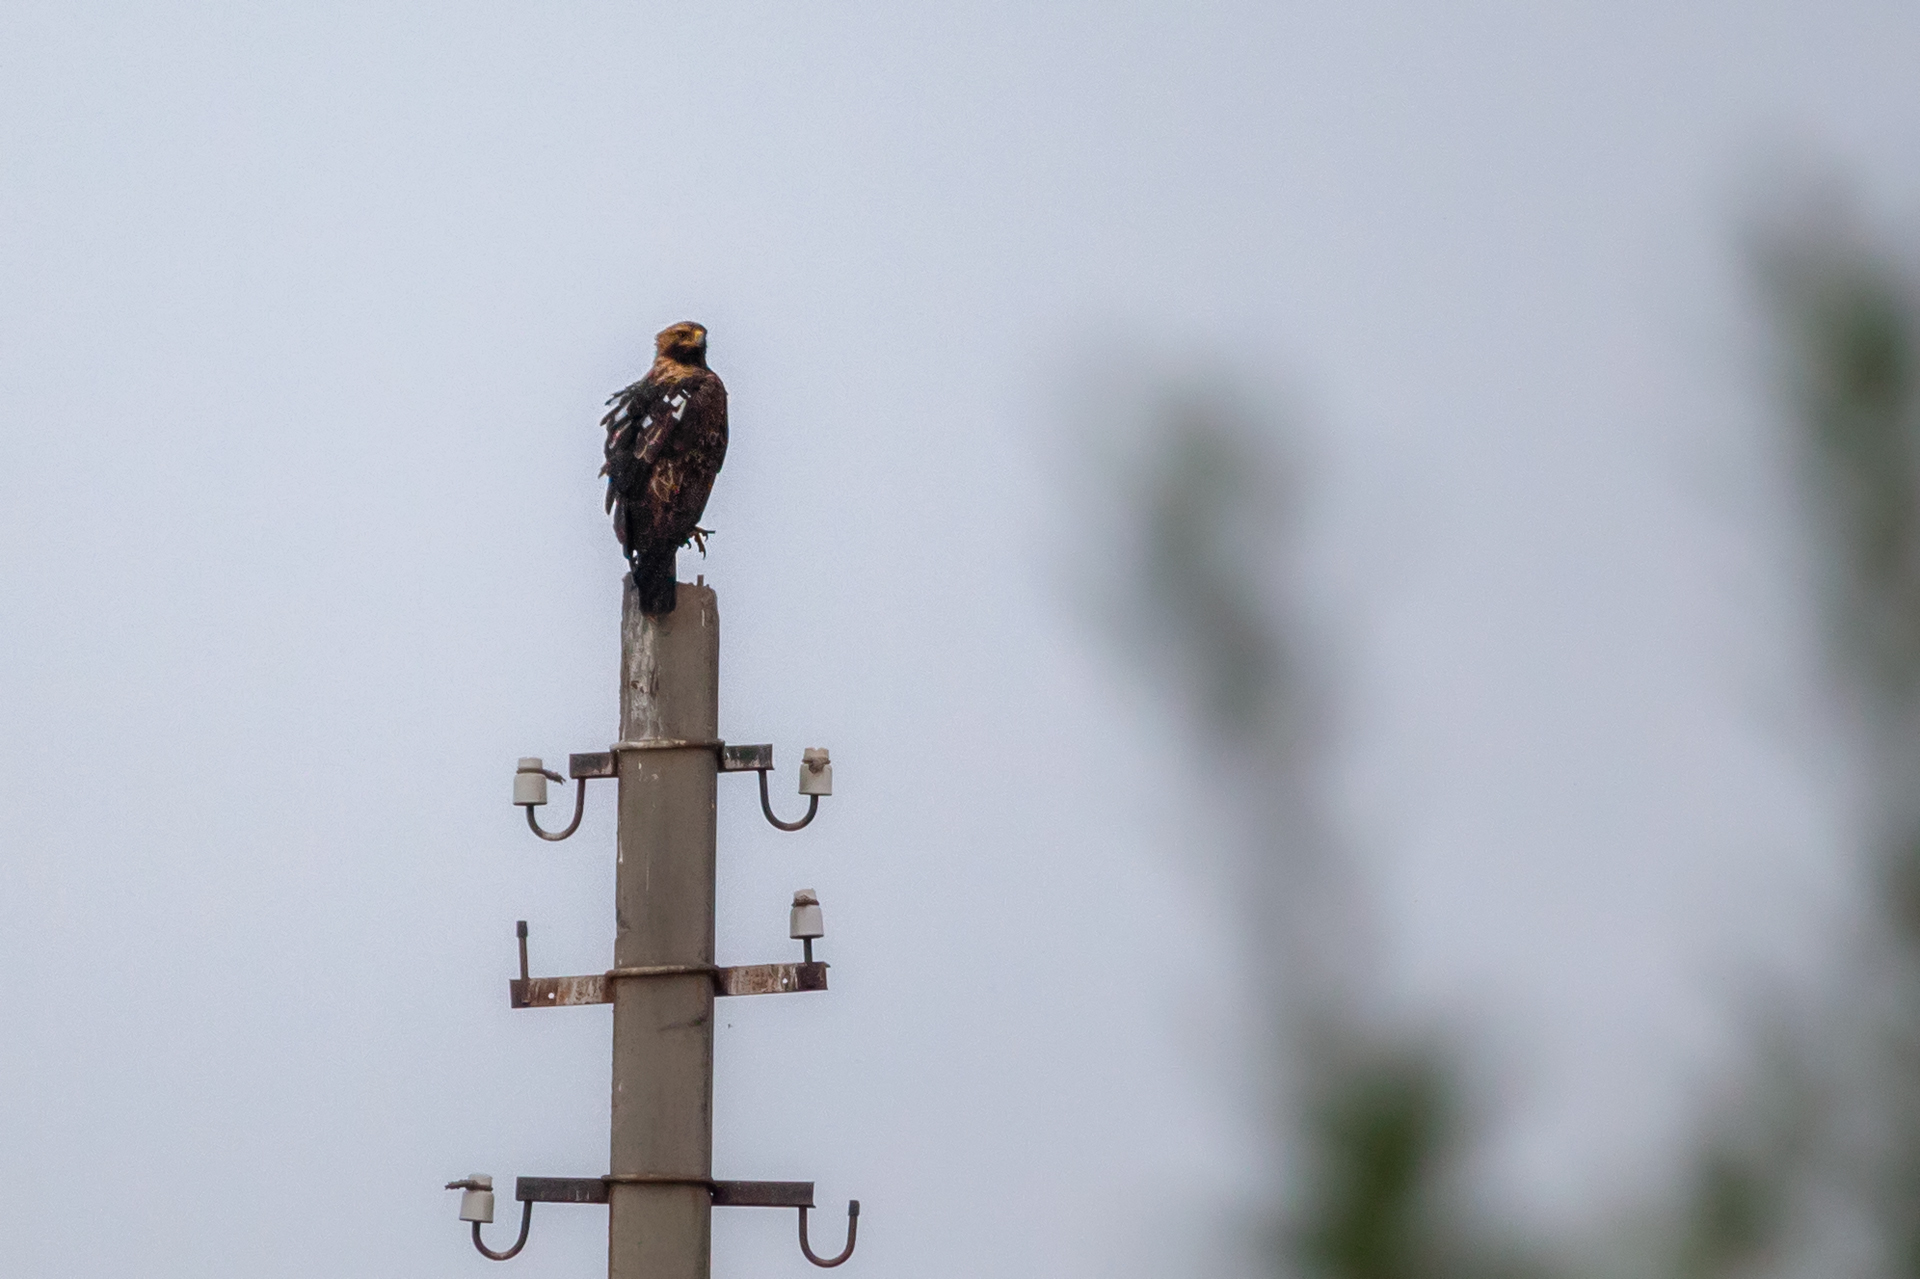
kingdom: Animalia
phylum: Chordata
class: Aves
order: Accipitriformes
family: Accipitridae
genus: Aquila
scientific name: Aquila heliaca
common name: Eastern imperial eagle
